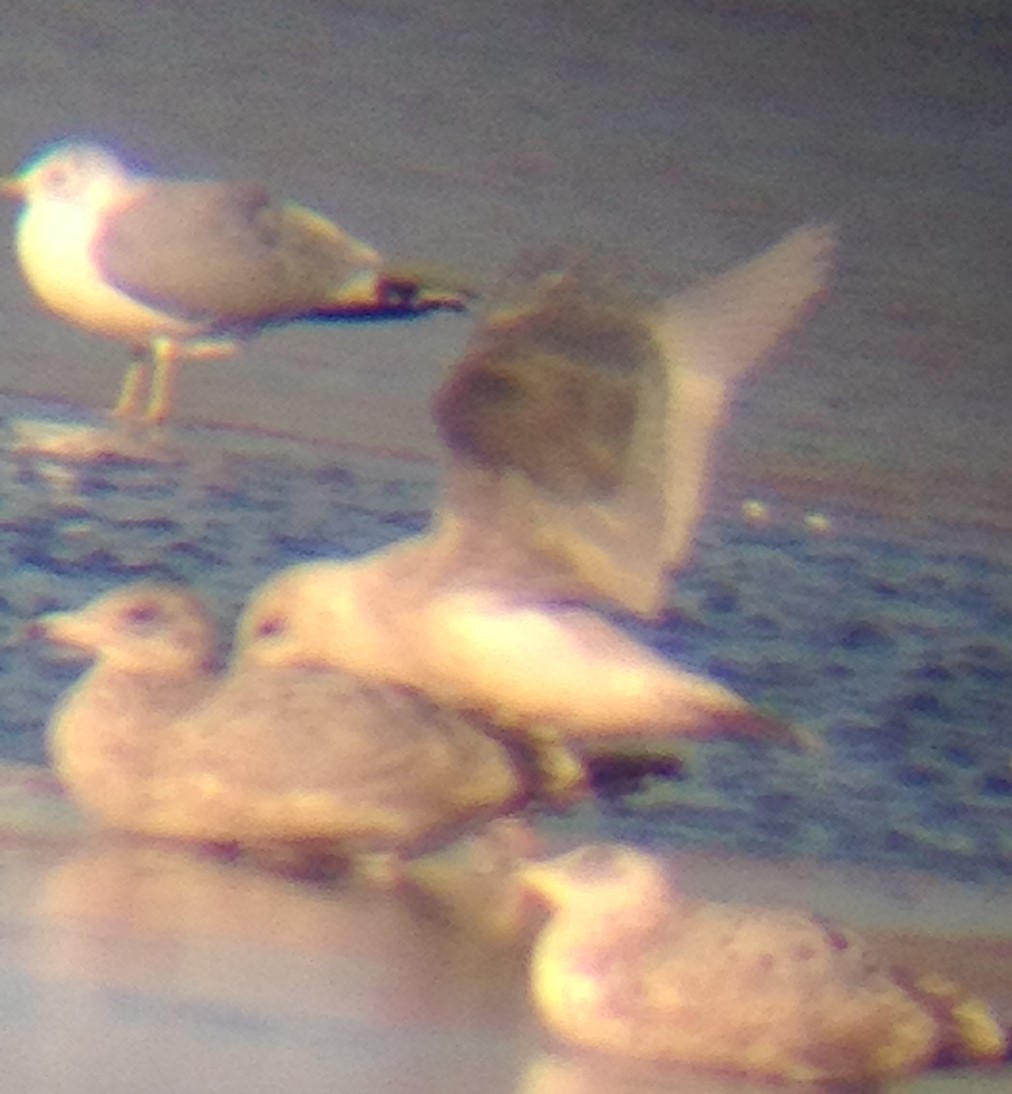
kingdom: Animalia
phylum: Chordata
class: Aves
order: Charadriiformes
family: Laridae
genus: Larus
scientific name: Larus glaucoides
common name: Iceland gull
